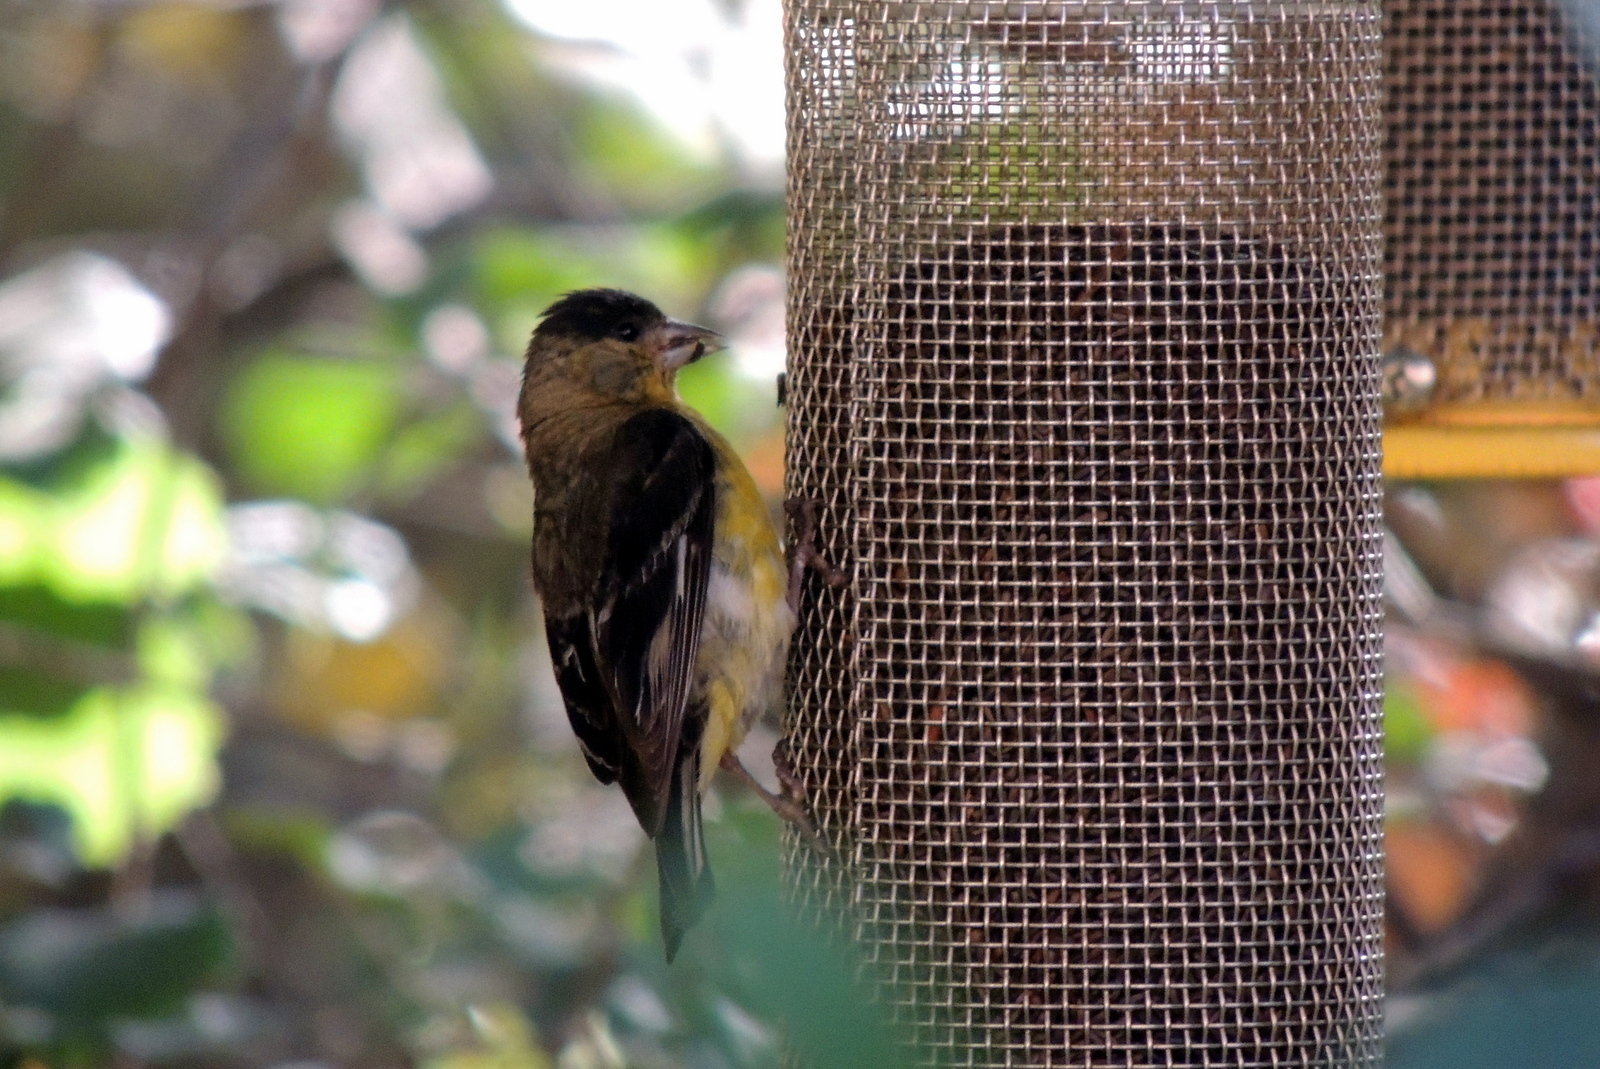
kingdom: Animalia
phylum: Chordata
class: Aves
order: Passeriformes
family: Fringillidae
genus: Spinus
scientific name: Spinus psaltria
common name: Lesser goldfinch
